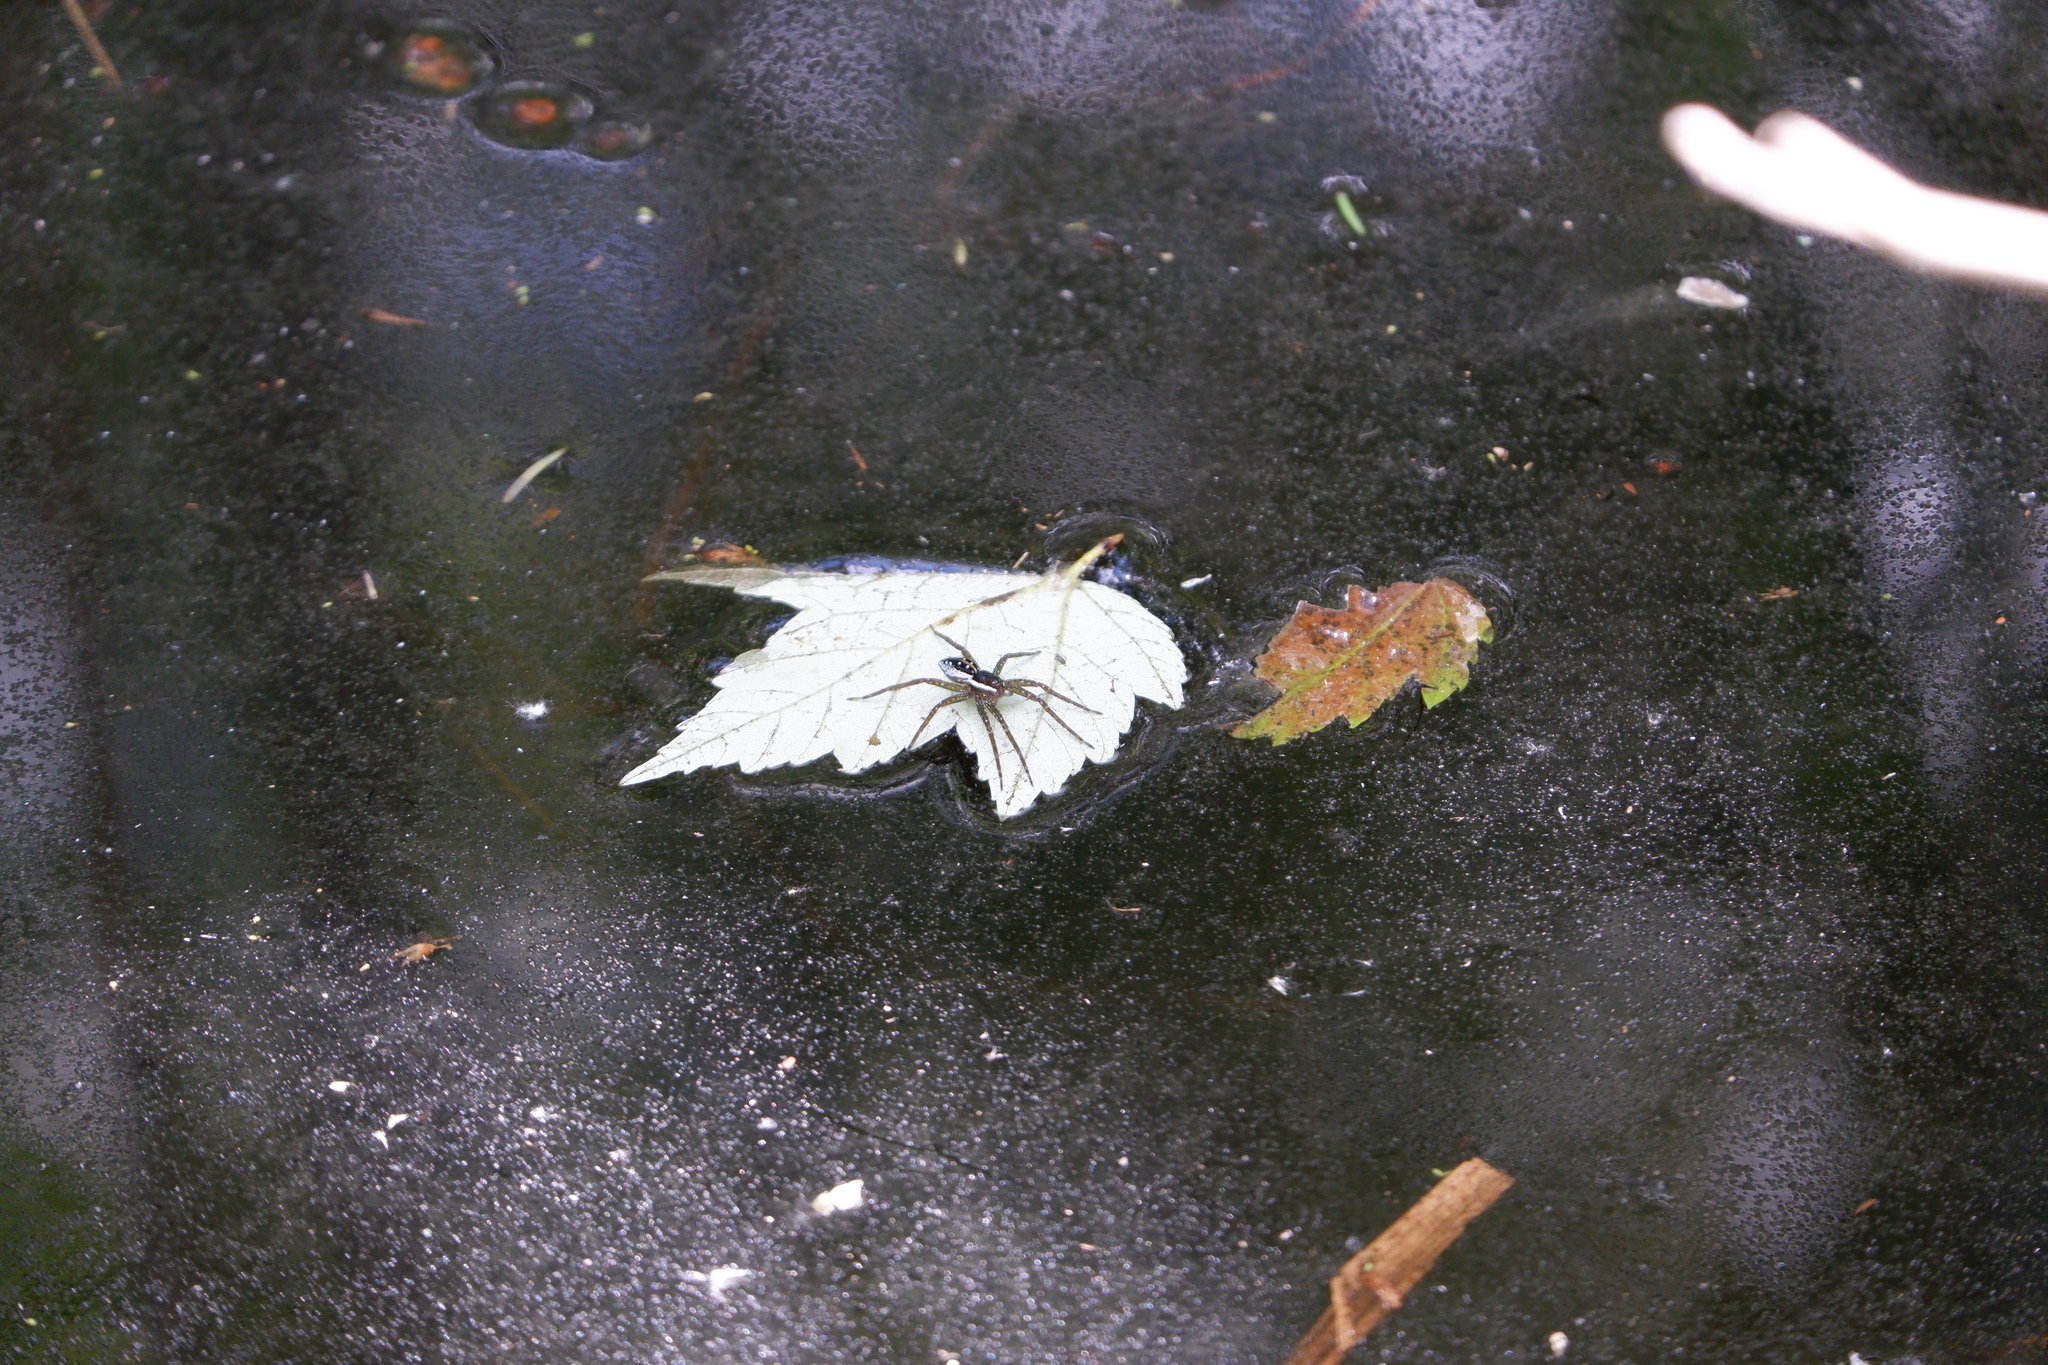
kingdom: Animalia
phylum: Arthropoda
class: Arachnida
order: Araneae
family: Pisauridae
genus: Dolomedes
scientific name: Dolomedes triton
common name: Six-spotted fishing spider
